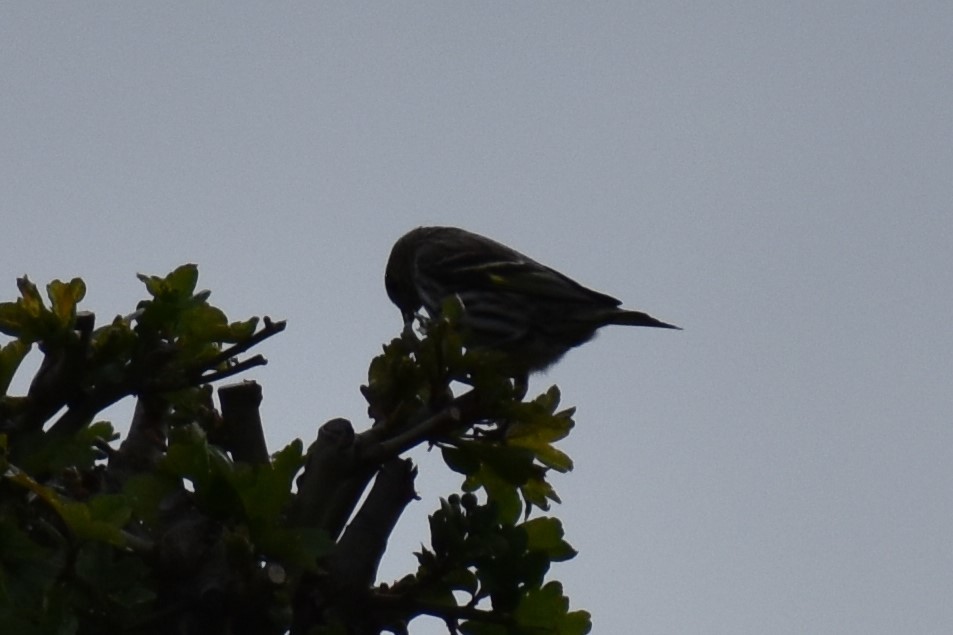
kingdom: Animalia
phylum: Chordata
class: Aves
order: Passeriformes
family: Fringillidae
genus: Spinus
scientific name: Spinus pinus
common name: Pine siskin
